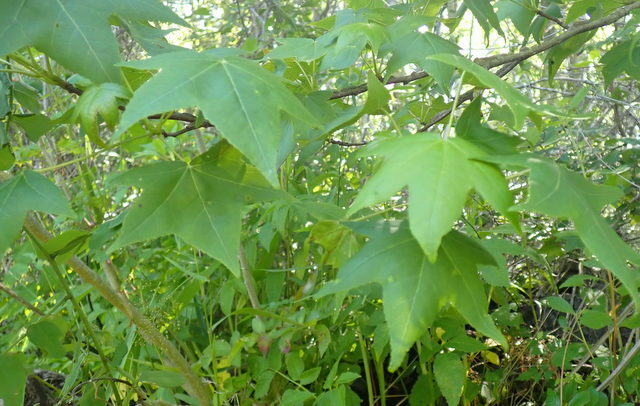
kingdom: Plantae
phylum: Tracheophyta
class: Magnoliopsida
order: Saxifragales
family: Altingiaceae
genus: Liquidambar
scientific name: Liquidambar styraciflua
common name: Sweet gum
